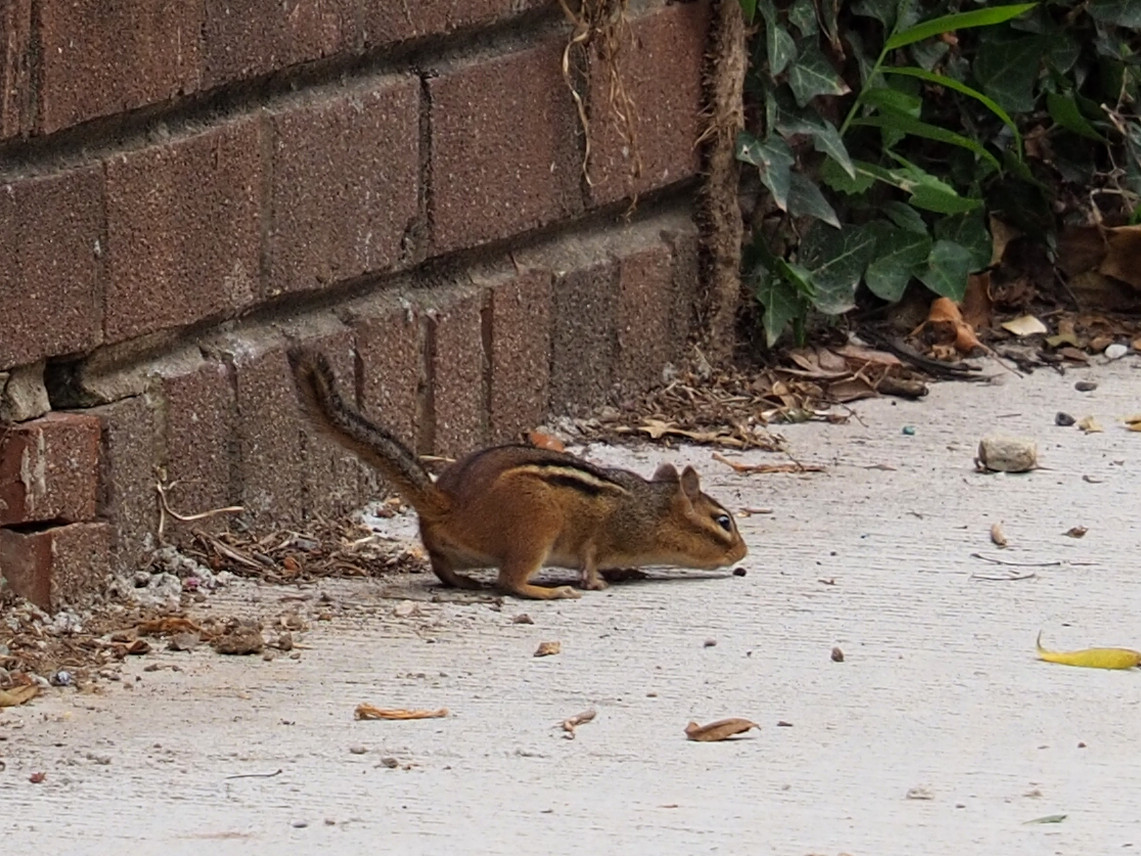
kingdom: Animalia
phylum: Chordata
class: Mammalia
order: Rodentia
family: Sciuridae
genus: Tamias
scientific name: Tamias striatus
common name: Eastern chipmunk
